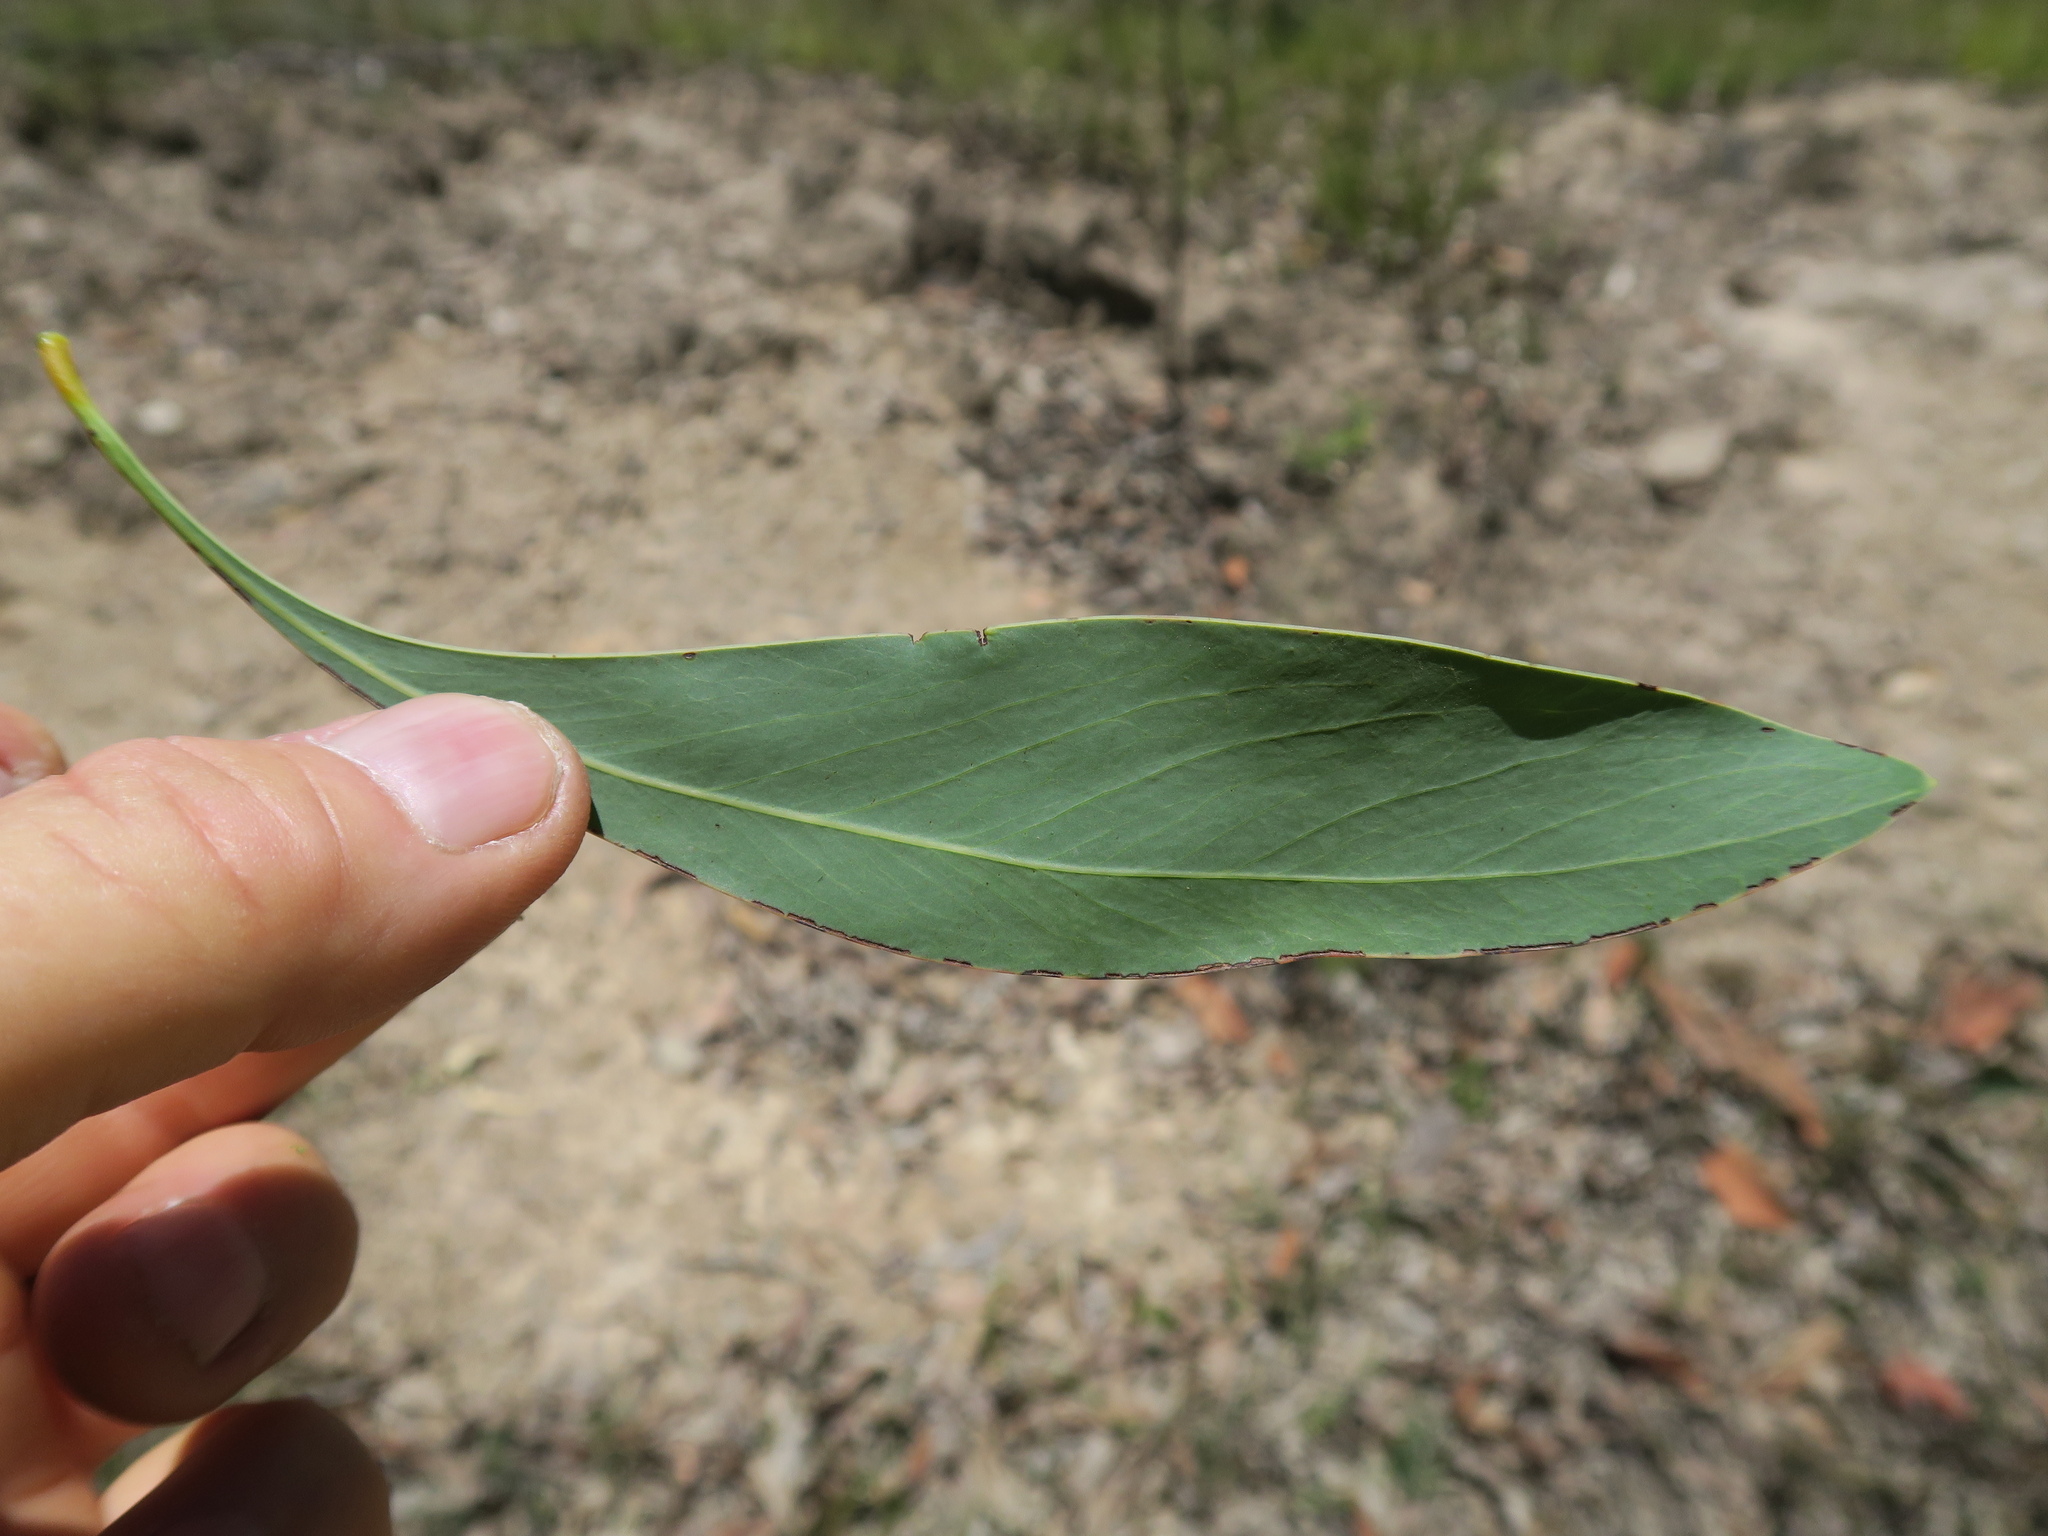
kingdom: Plantae
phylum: Tracheophyta
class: Magnoliopsida
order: Fabales
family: Fabaceae
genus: Acacia
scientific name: Acacia falcata
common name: Burra acacia
